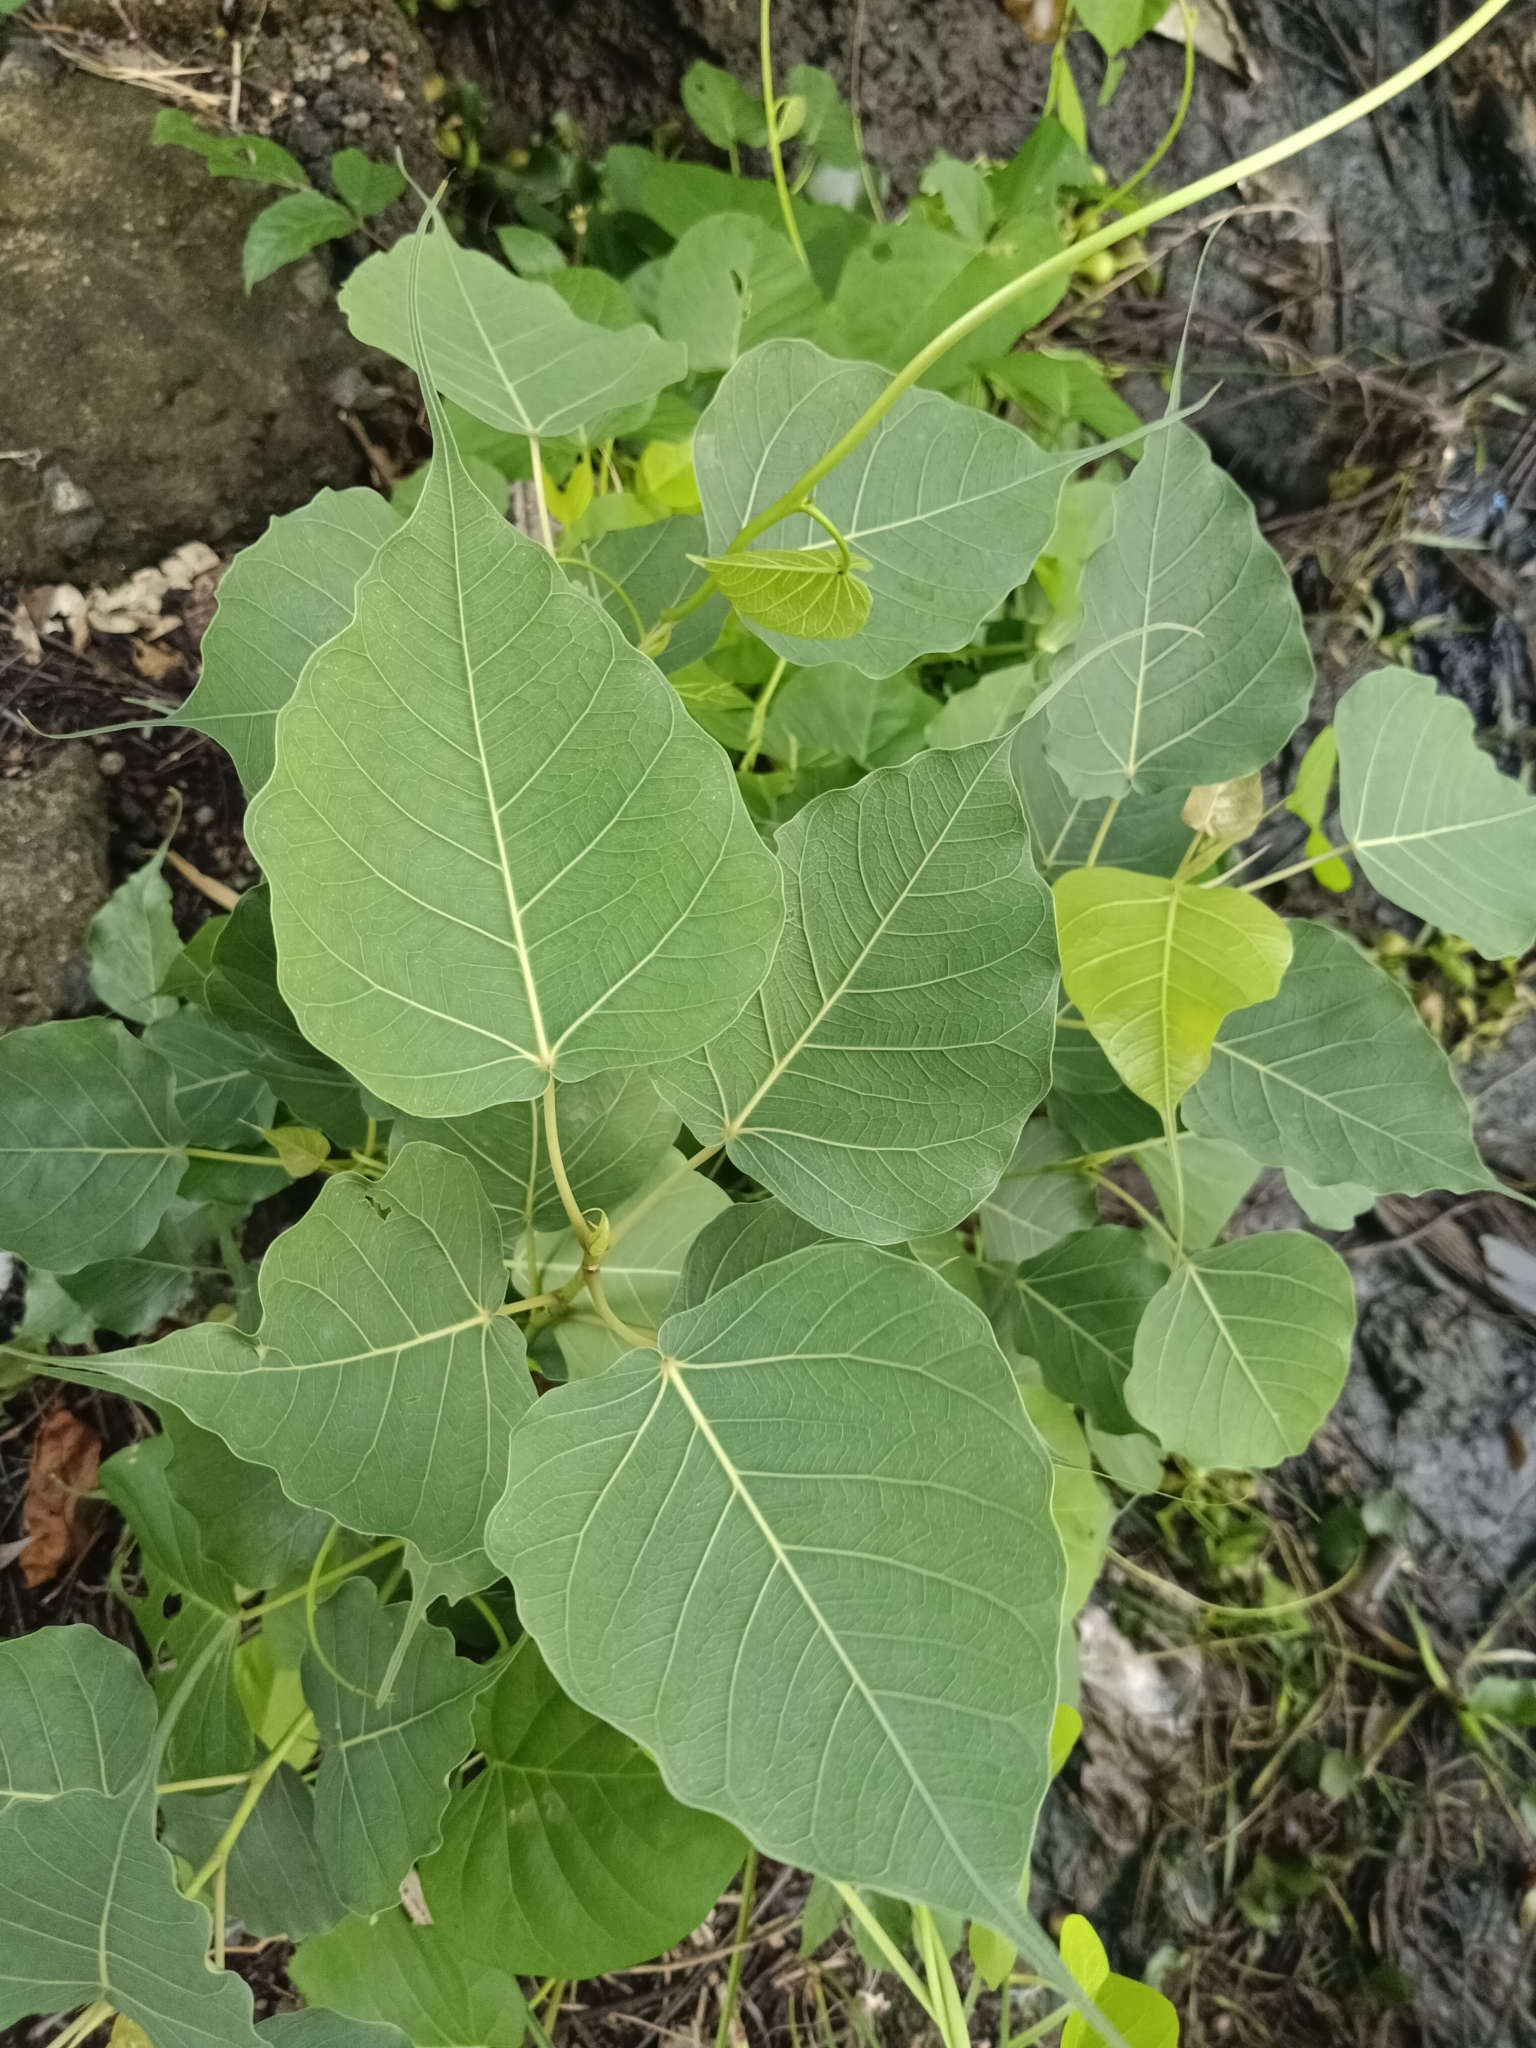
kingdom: Plantae
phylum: Tracheophyta
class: Magnoliopsida
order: Rosales
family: Moraceae
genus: Ficus
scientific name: Ficus religiosa
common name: Bodhi tree
